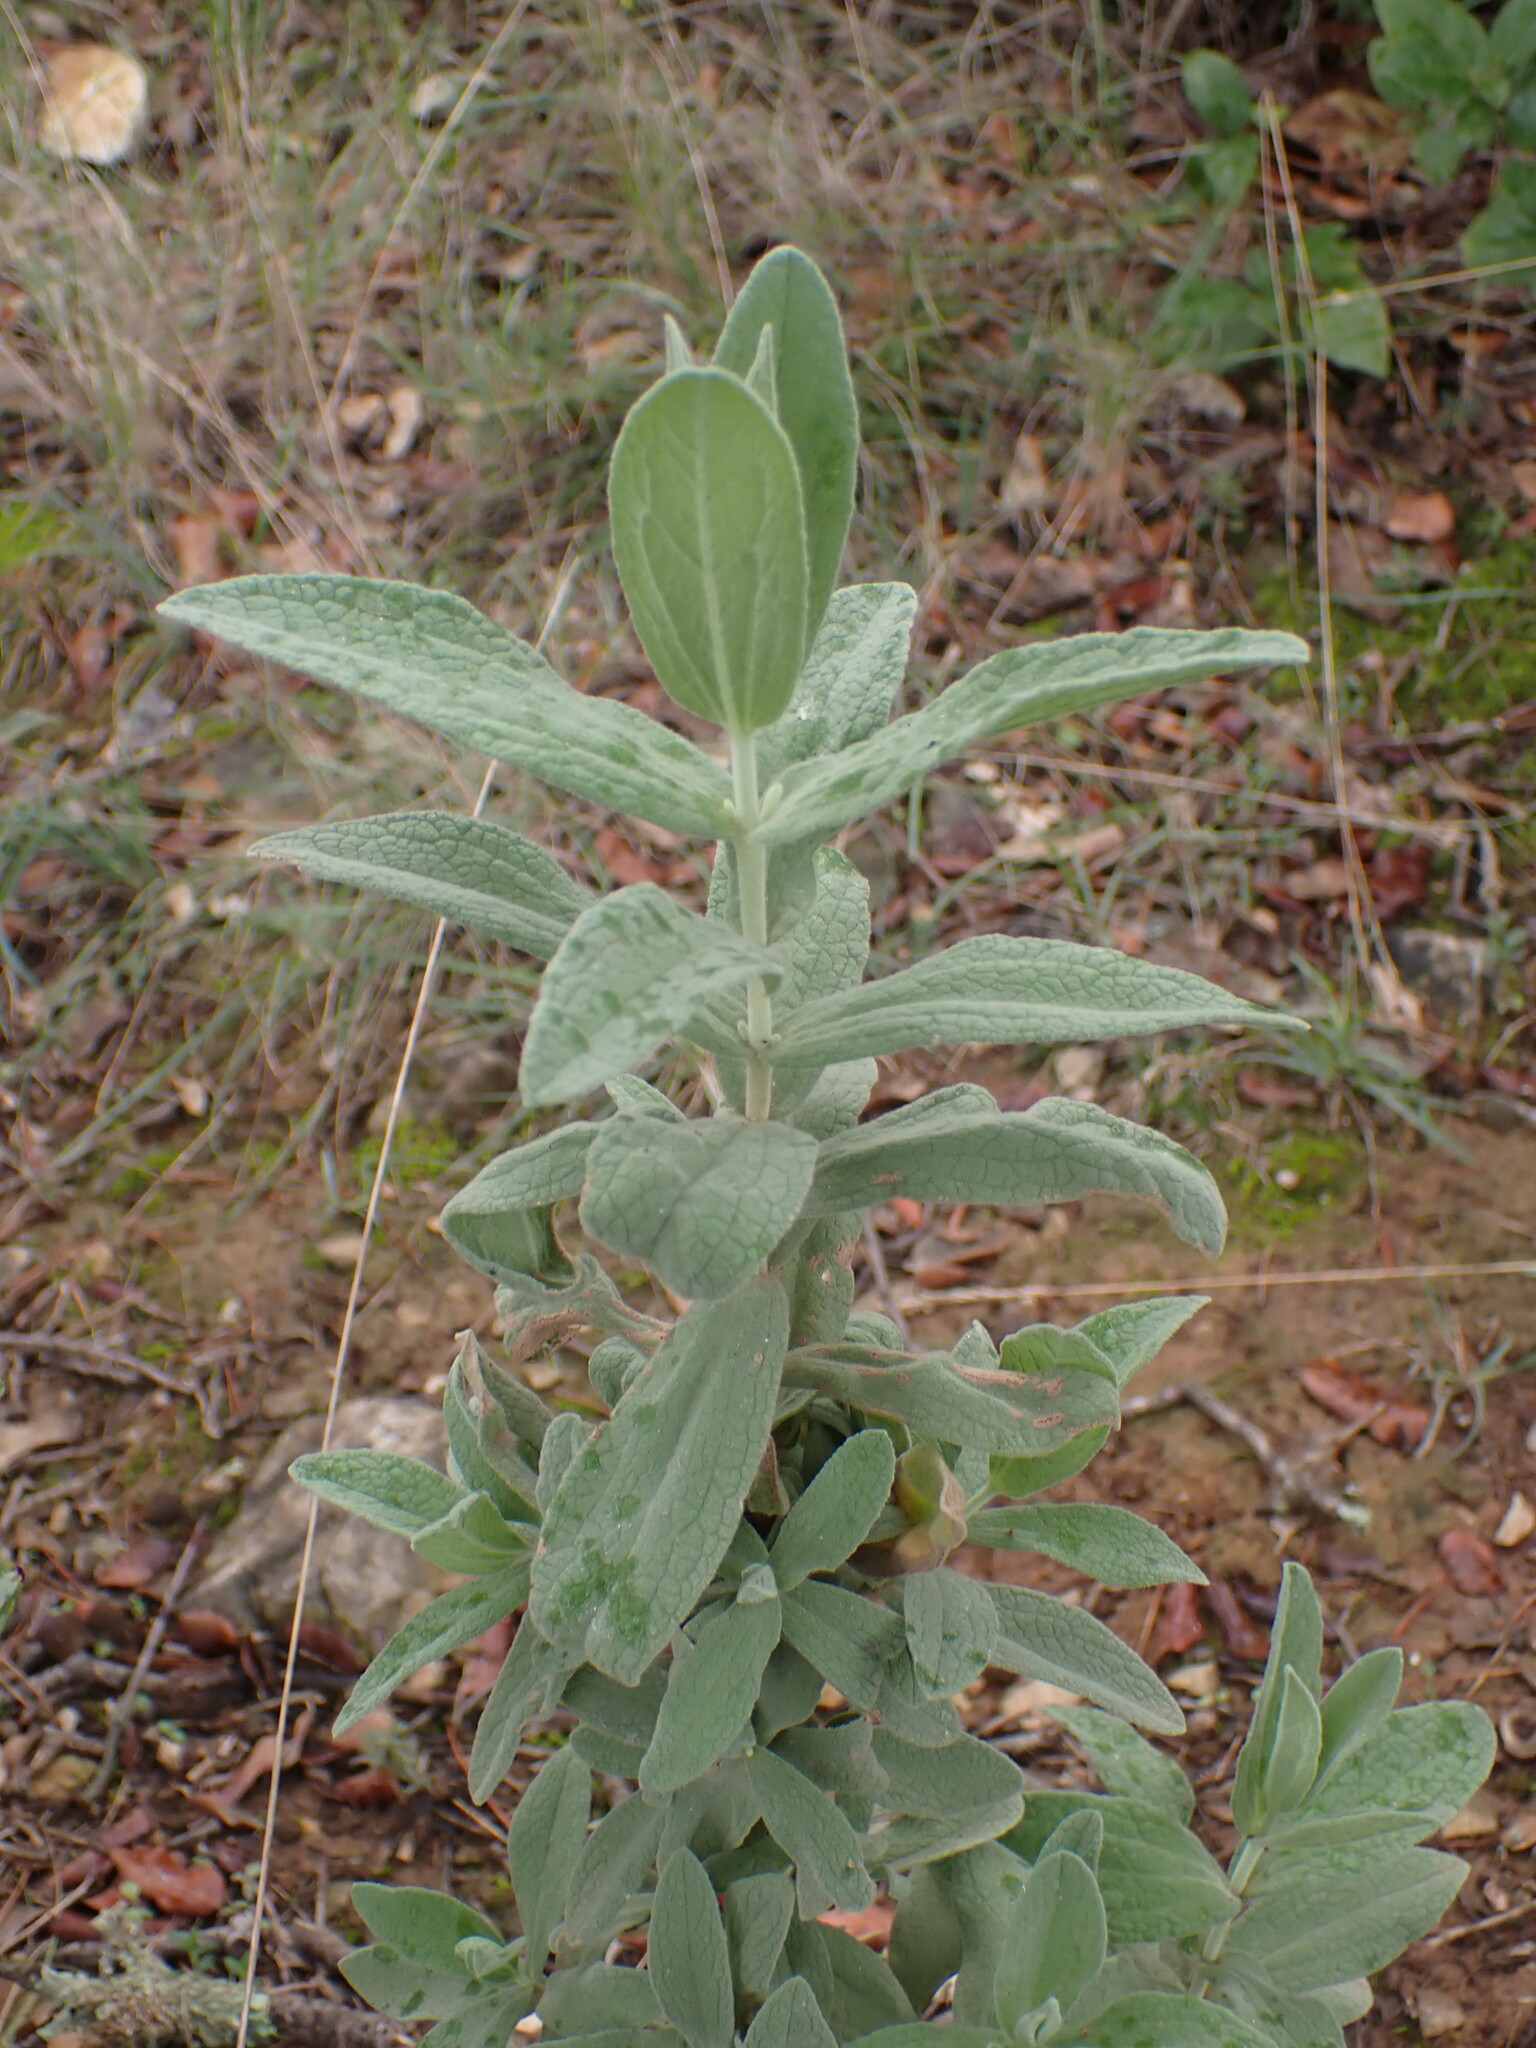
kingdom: Plantae
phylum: Tracheophyta
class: Magnoliopsida
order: Malvales
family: Cistaceae
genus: Cistus
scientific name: Cistus albidus
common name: White-leaf rock-rose
